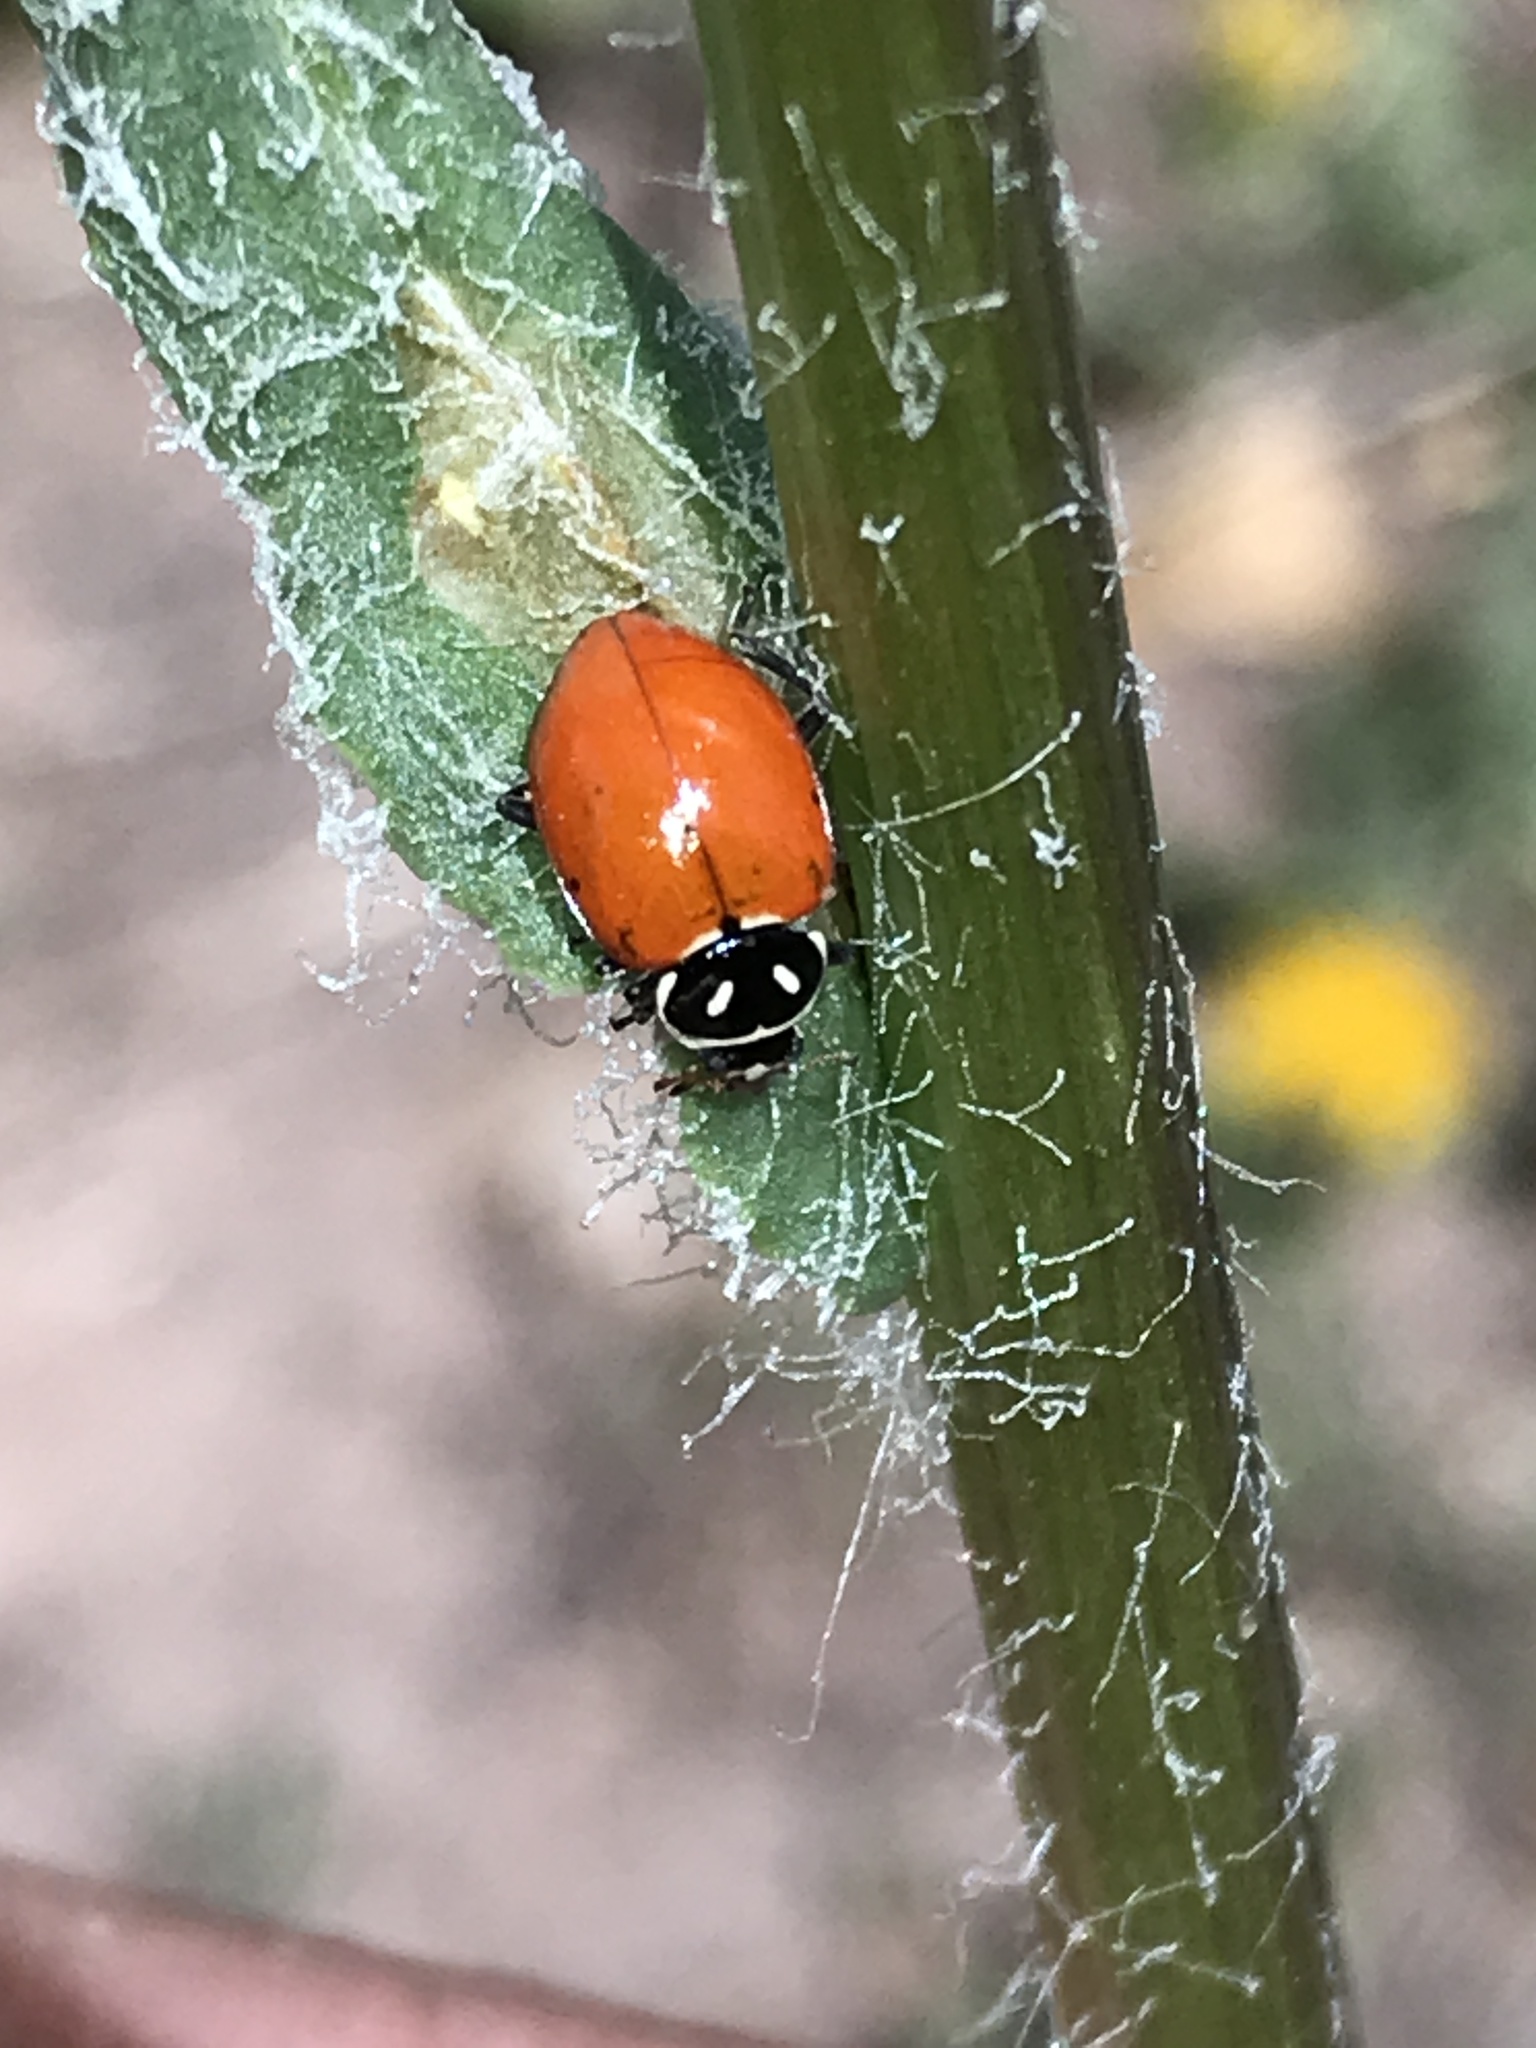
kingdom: Animalia
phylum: Arthropoda
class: Insecta
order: Coleoptera
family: Coccinellidae
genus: Hippodamia
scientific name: Hippodamia convergens
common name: Convergent lady beetle
